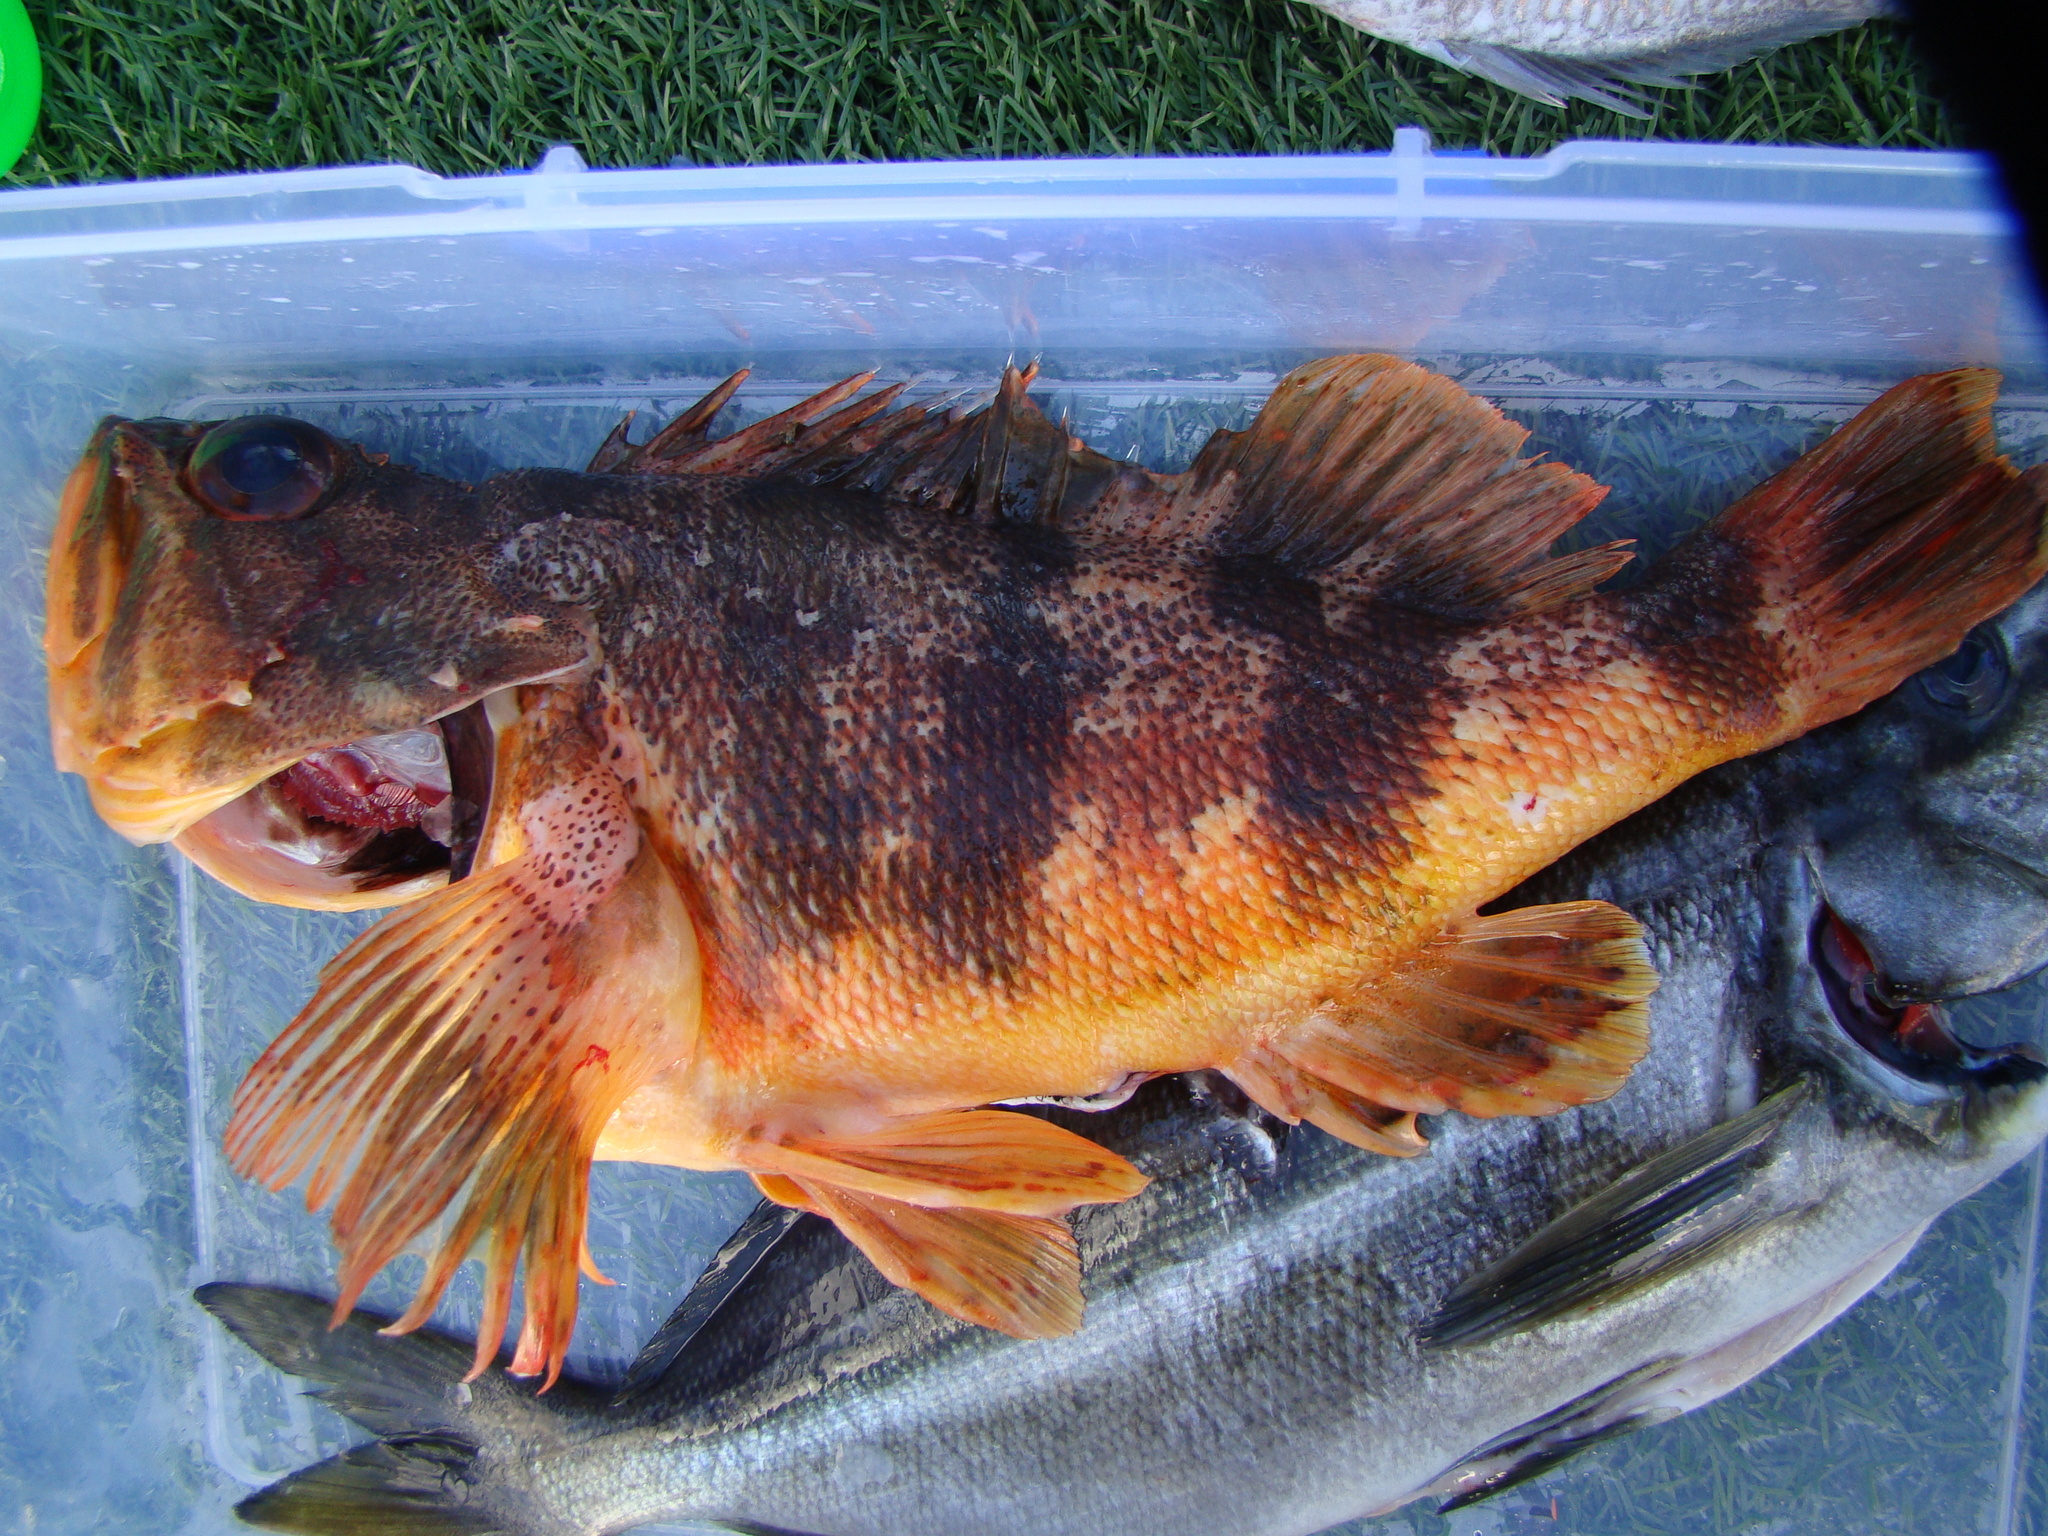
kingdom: Animalia
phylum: Chordata
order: Scorpaeniformes
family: Sebastidae
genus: Helicolenus
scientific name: Helicolenus percoides
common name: Jock stewart
